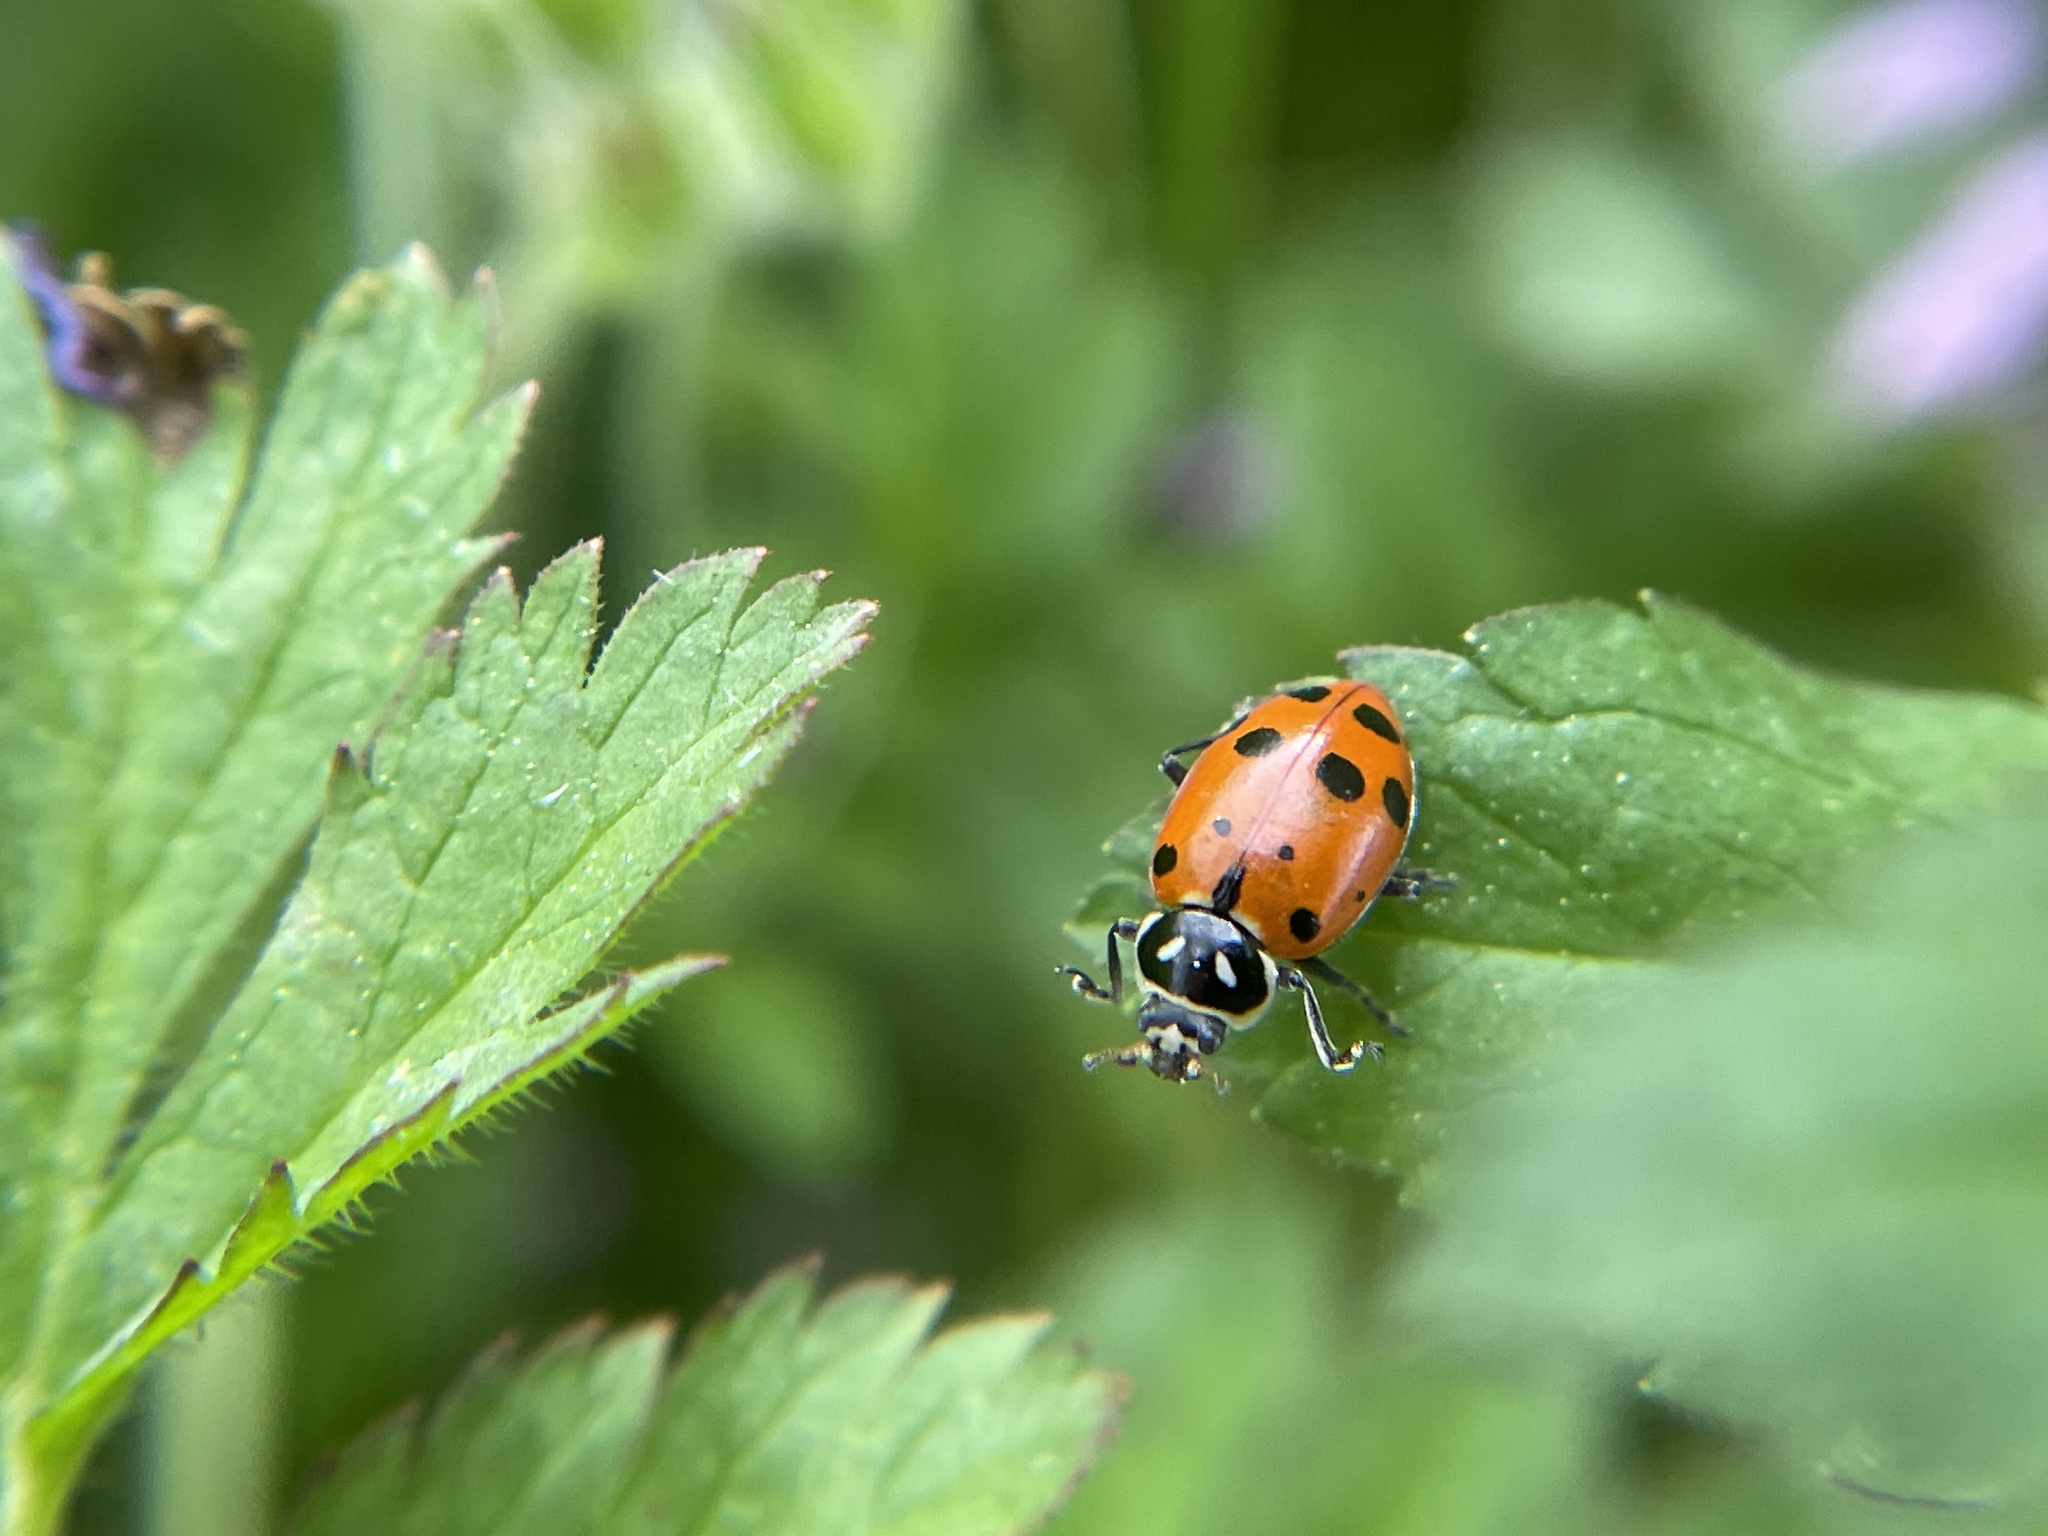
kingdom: Animalia
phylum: Arthropoda
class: Insecta
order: Coleoptera
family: Coccinellidae
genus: Hippodamia
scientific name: Hippodamia convergens
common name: Convergent lady beetle
